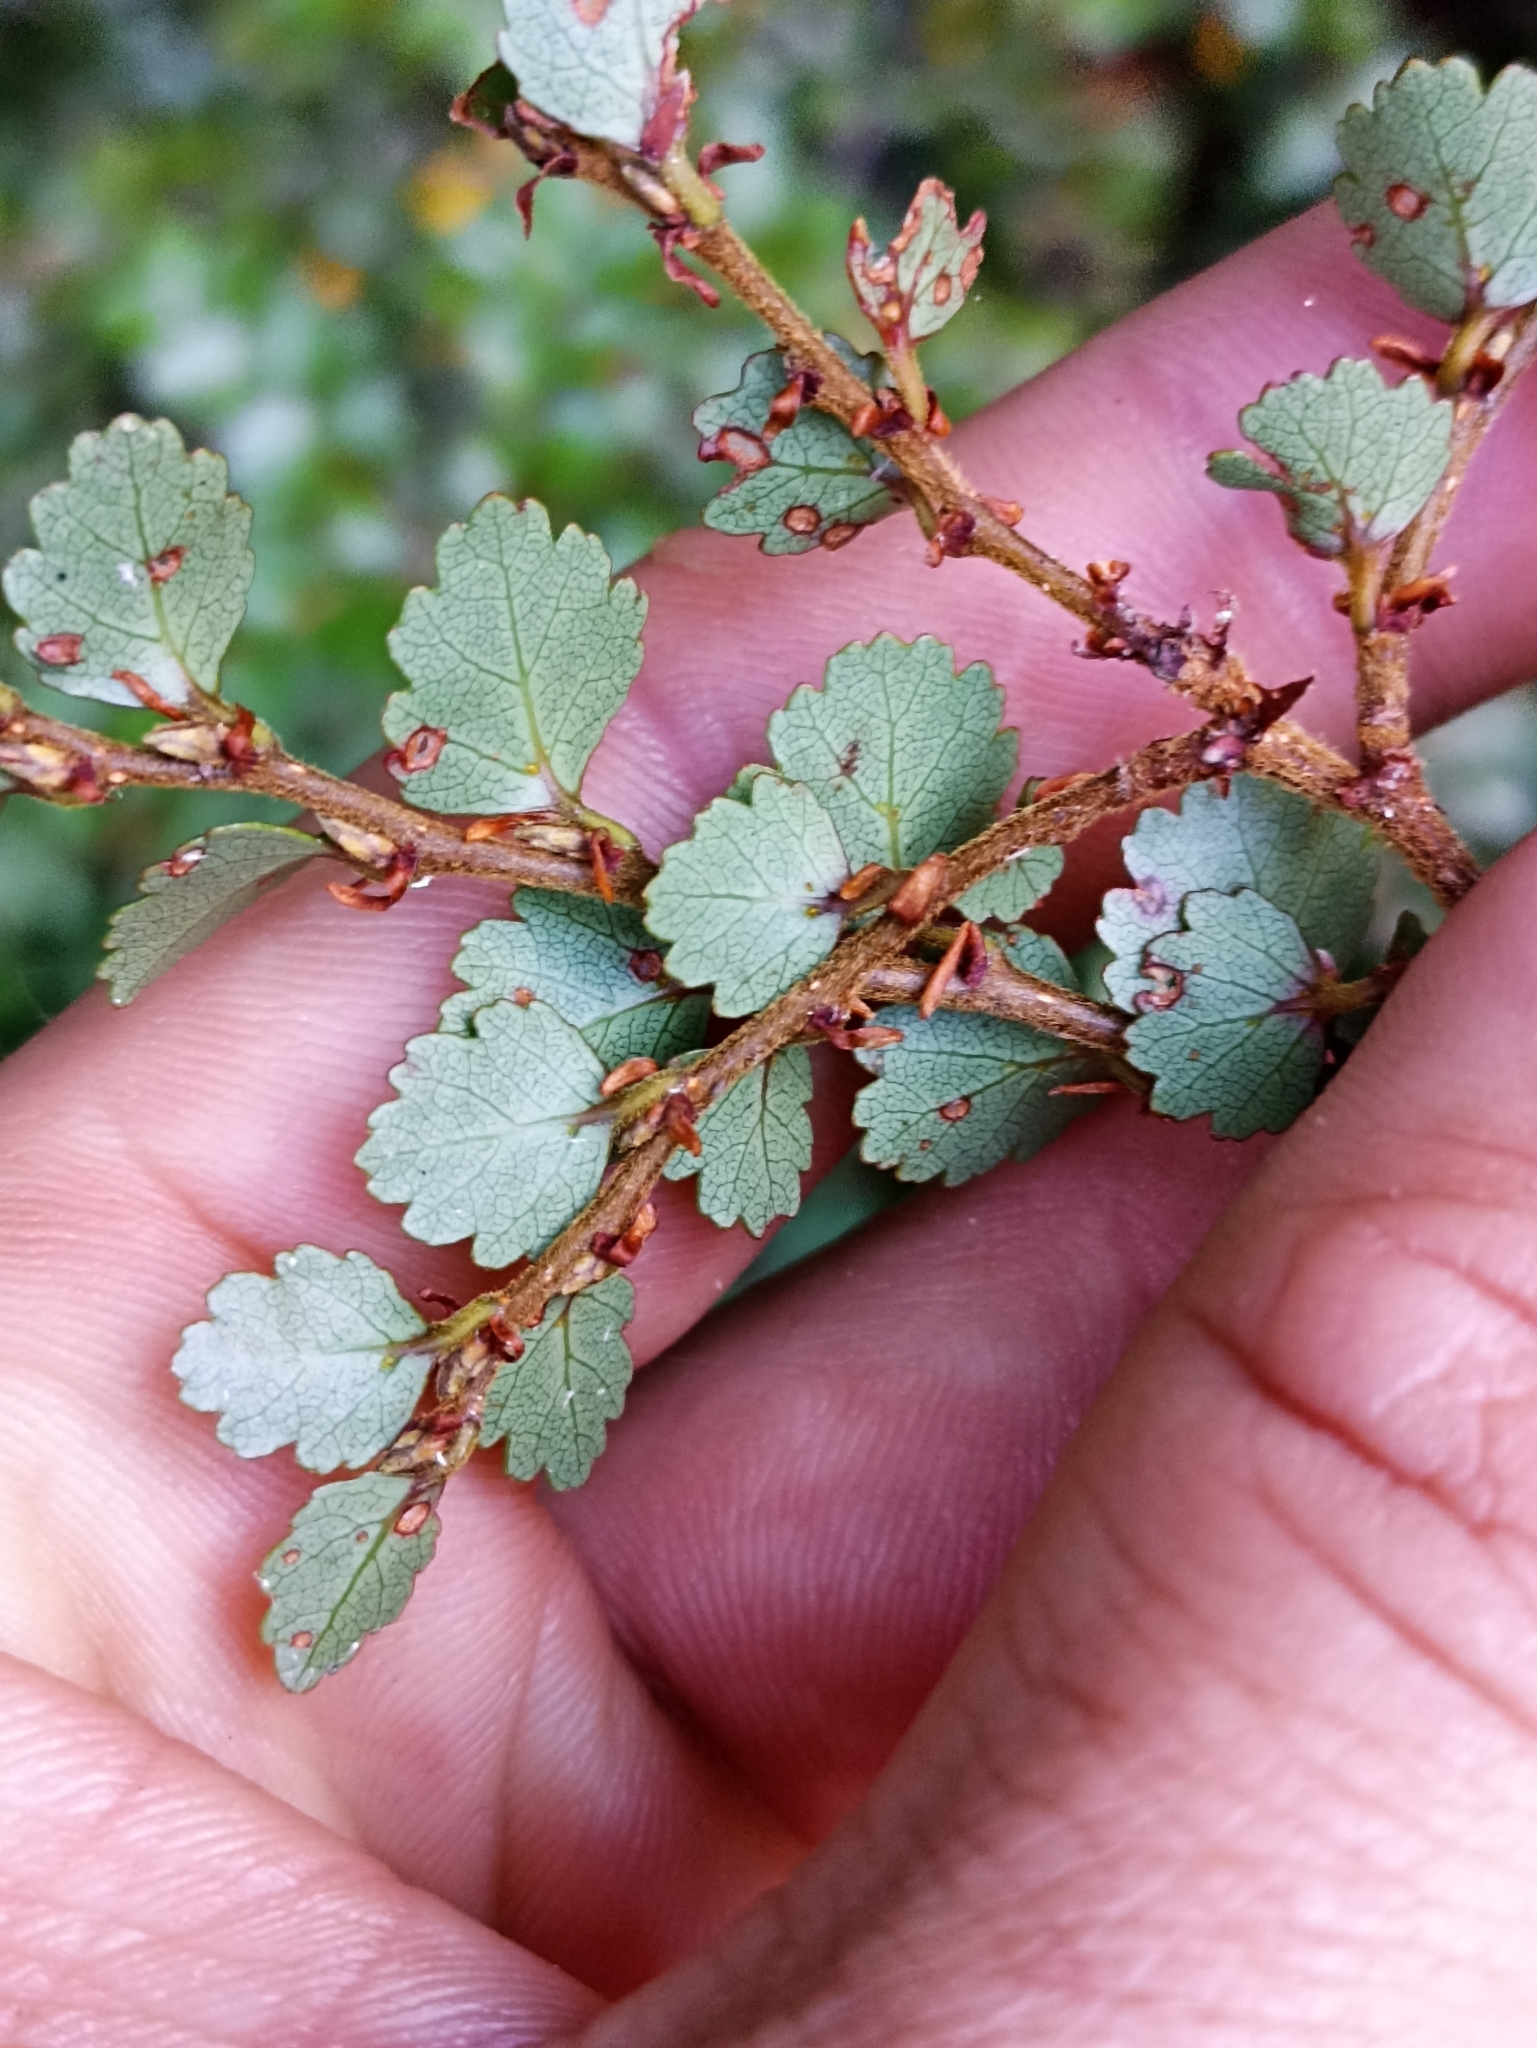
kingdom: Plantae
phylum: Tracheophyta
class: Magnoliopsida
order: Fagales
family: Nothofagaceae
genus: Nothofagus
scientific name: Nothofagus menziesii
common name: Silver beech
